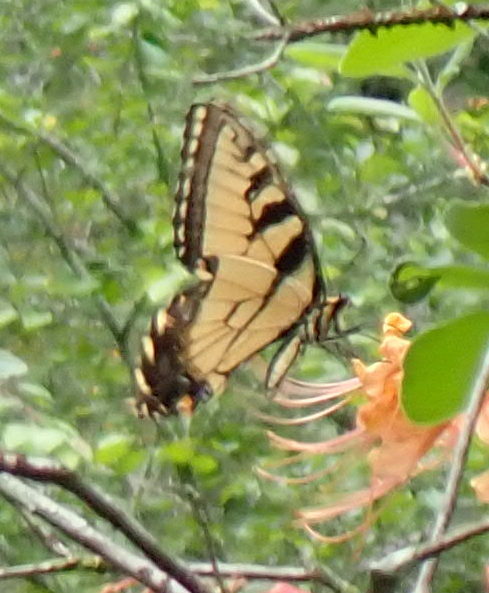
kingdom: Animalia
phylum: Arthropoda
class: Insecta
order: Lepidoptera
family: Papilionidae
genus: Papilio
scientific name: Papilio glaucus
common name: Tiger swallowtail
